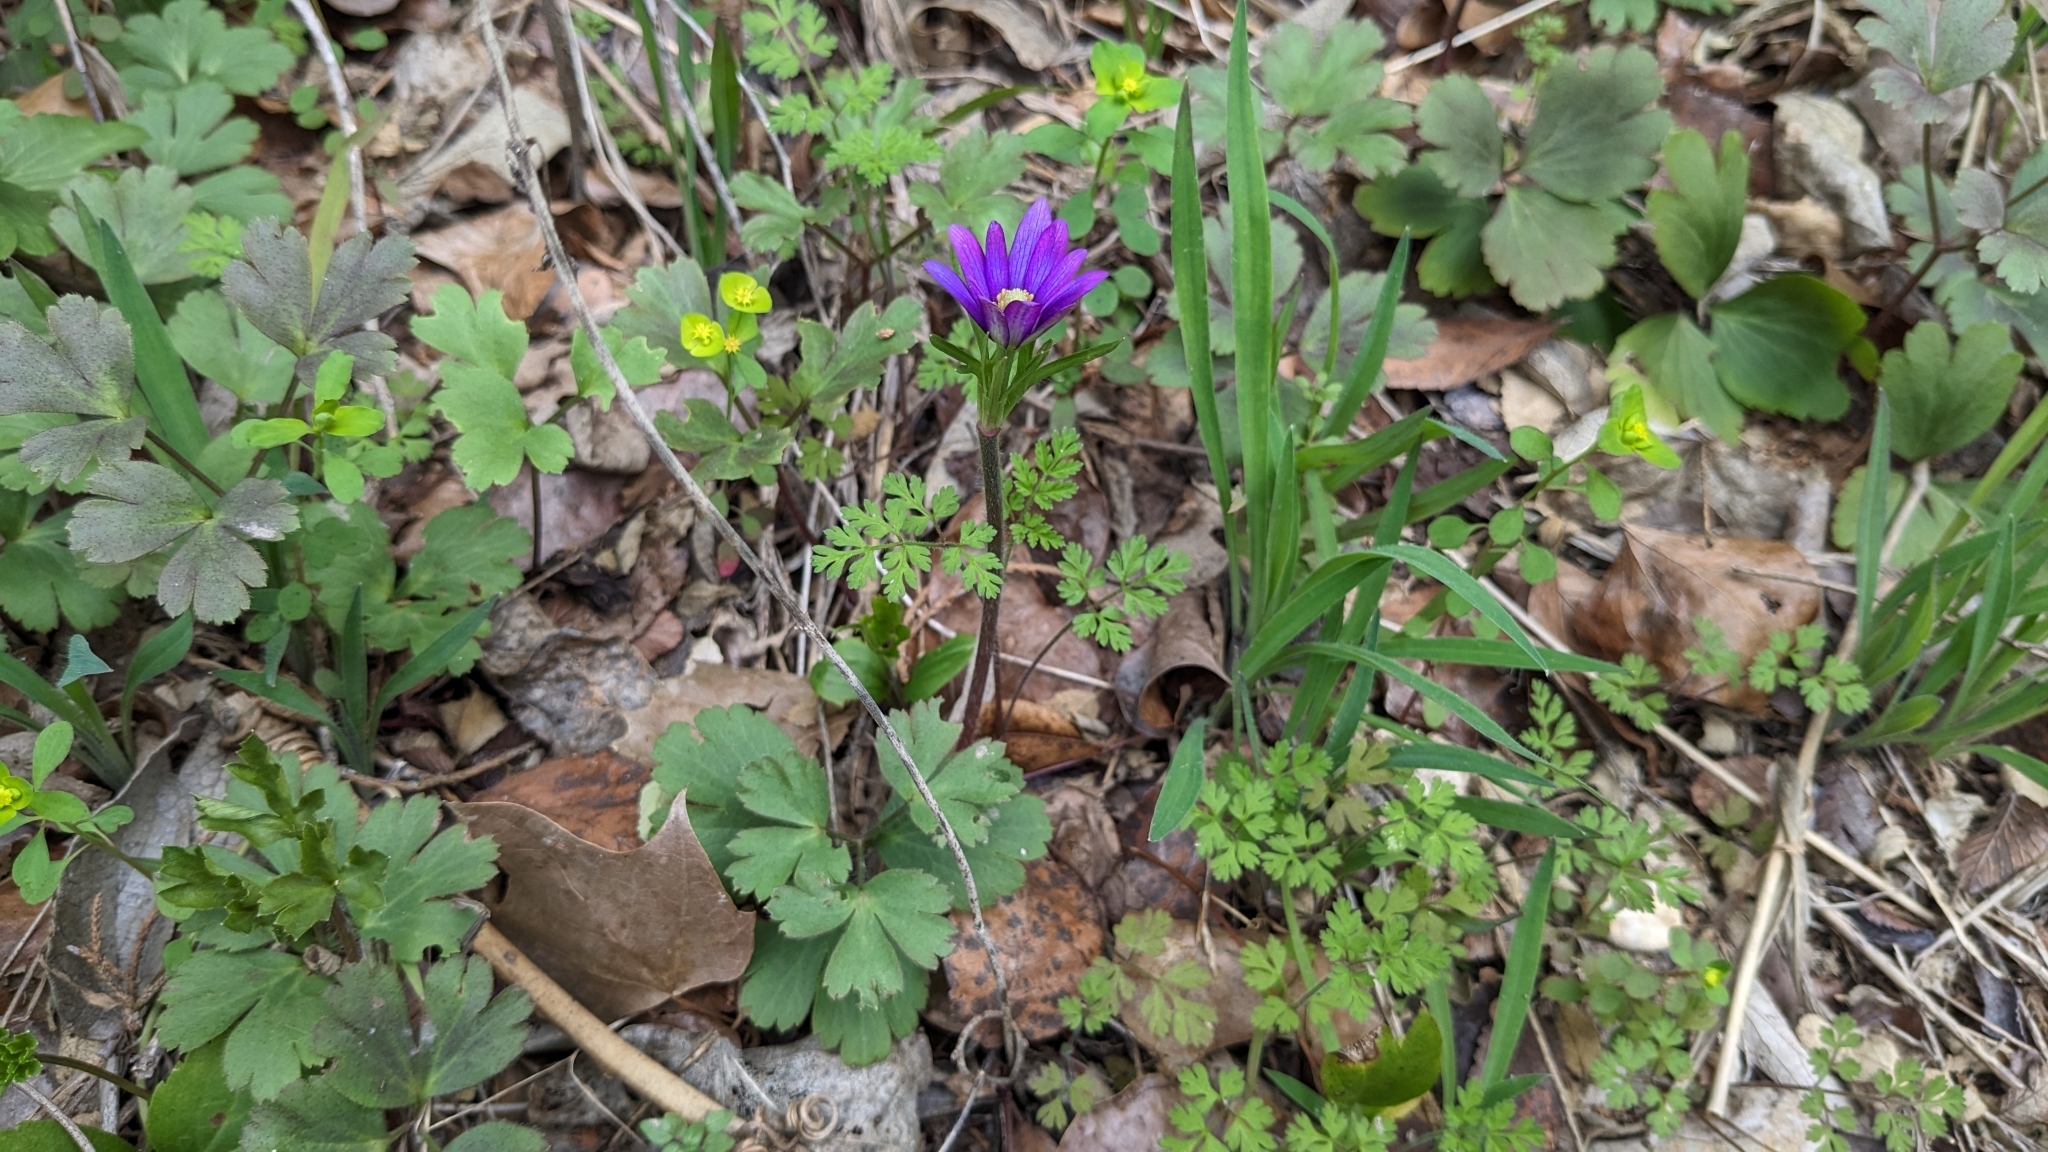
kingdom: Plantae
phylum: Tracheophyta
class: Magnoliopsida
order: Ranunculales
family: Ranunculaceae
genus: Anemone
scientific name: Anemone berlandieri
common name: Ten-petal anemone
